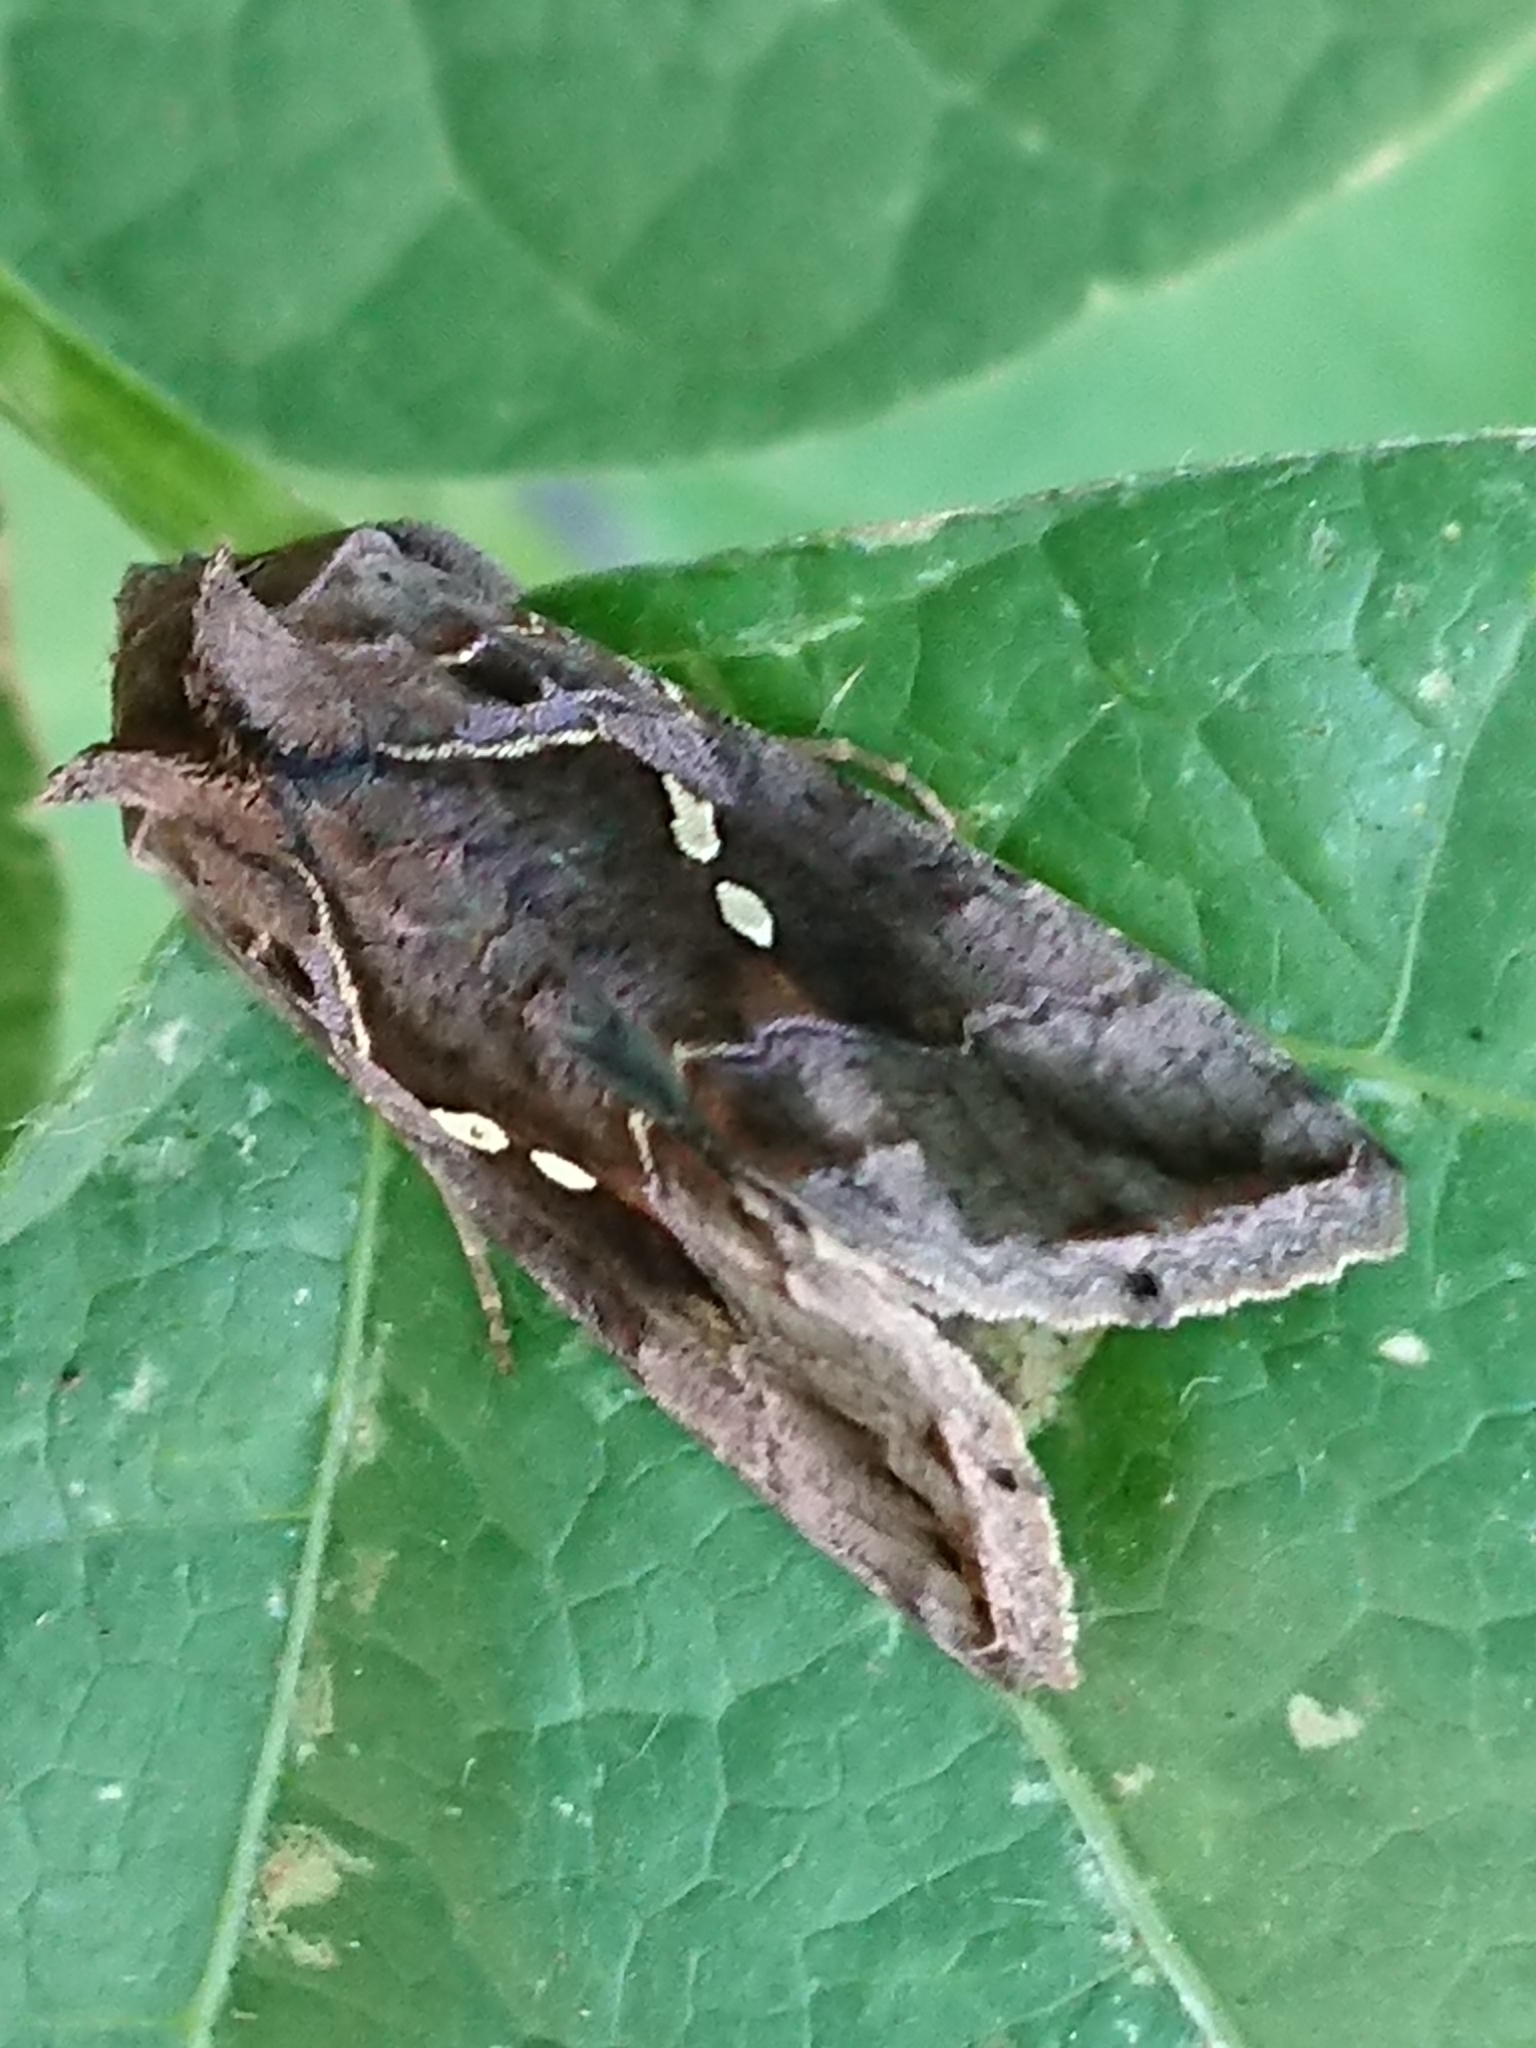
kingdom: Animalia
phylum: Arthropoda
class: Insecta
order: Lepidoptera
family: Noctuidae
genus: Chrysodeixis
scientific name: Chrysodeixis eriosoma
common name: Green garden looper
